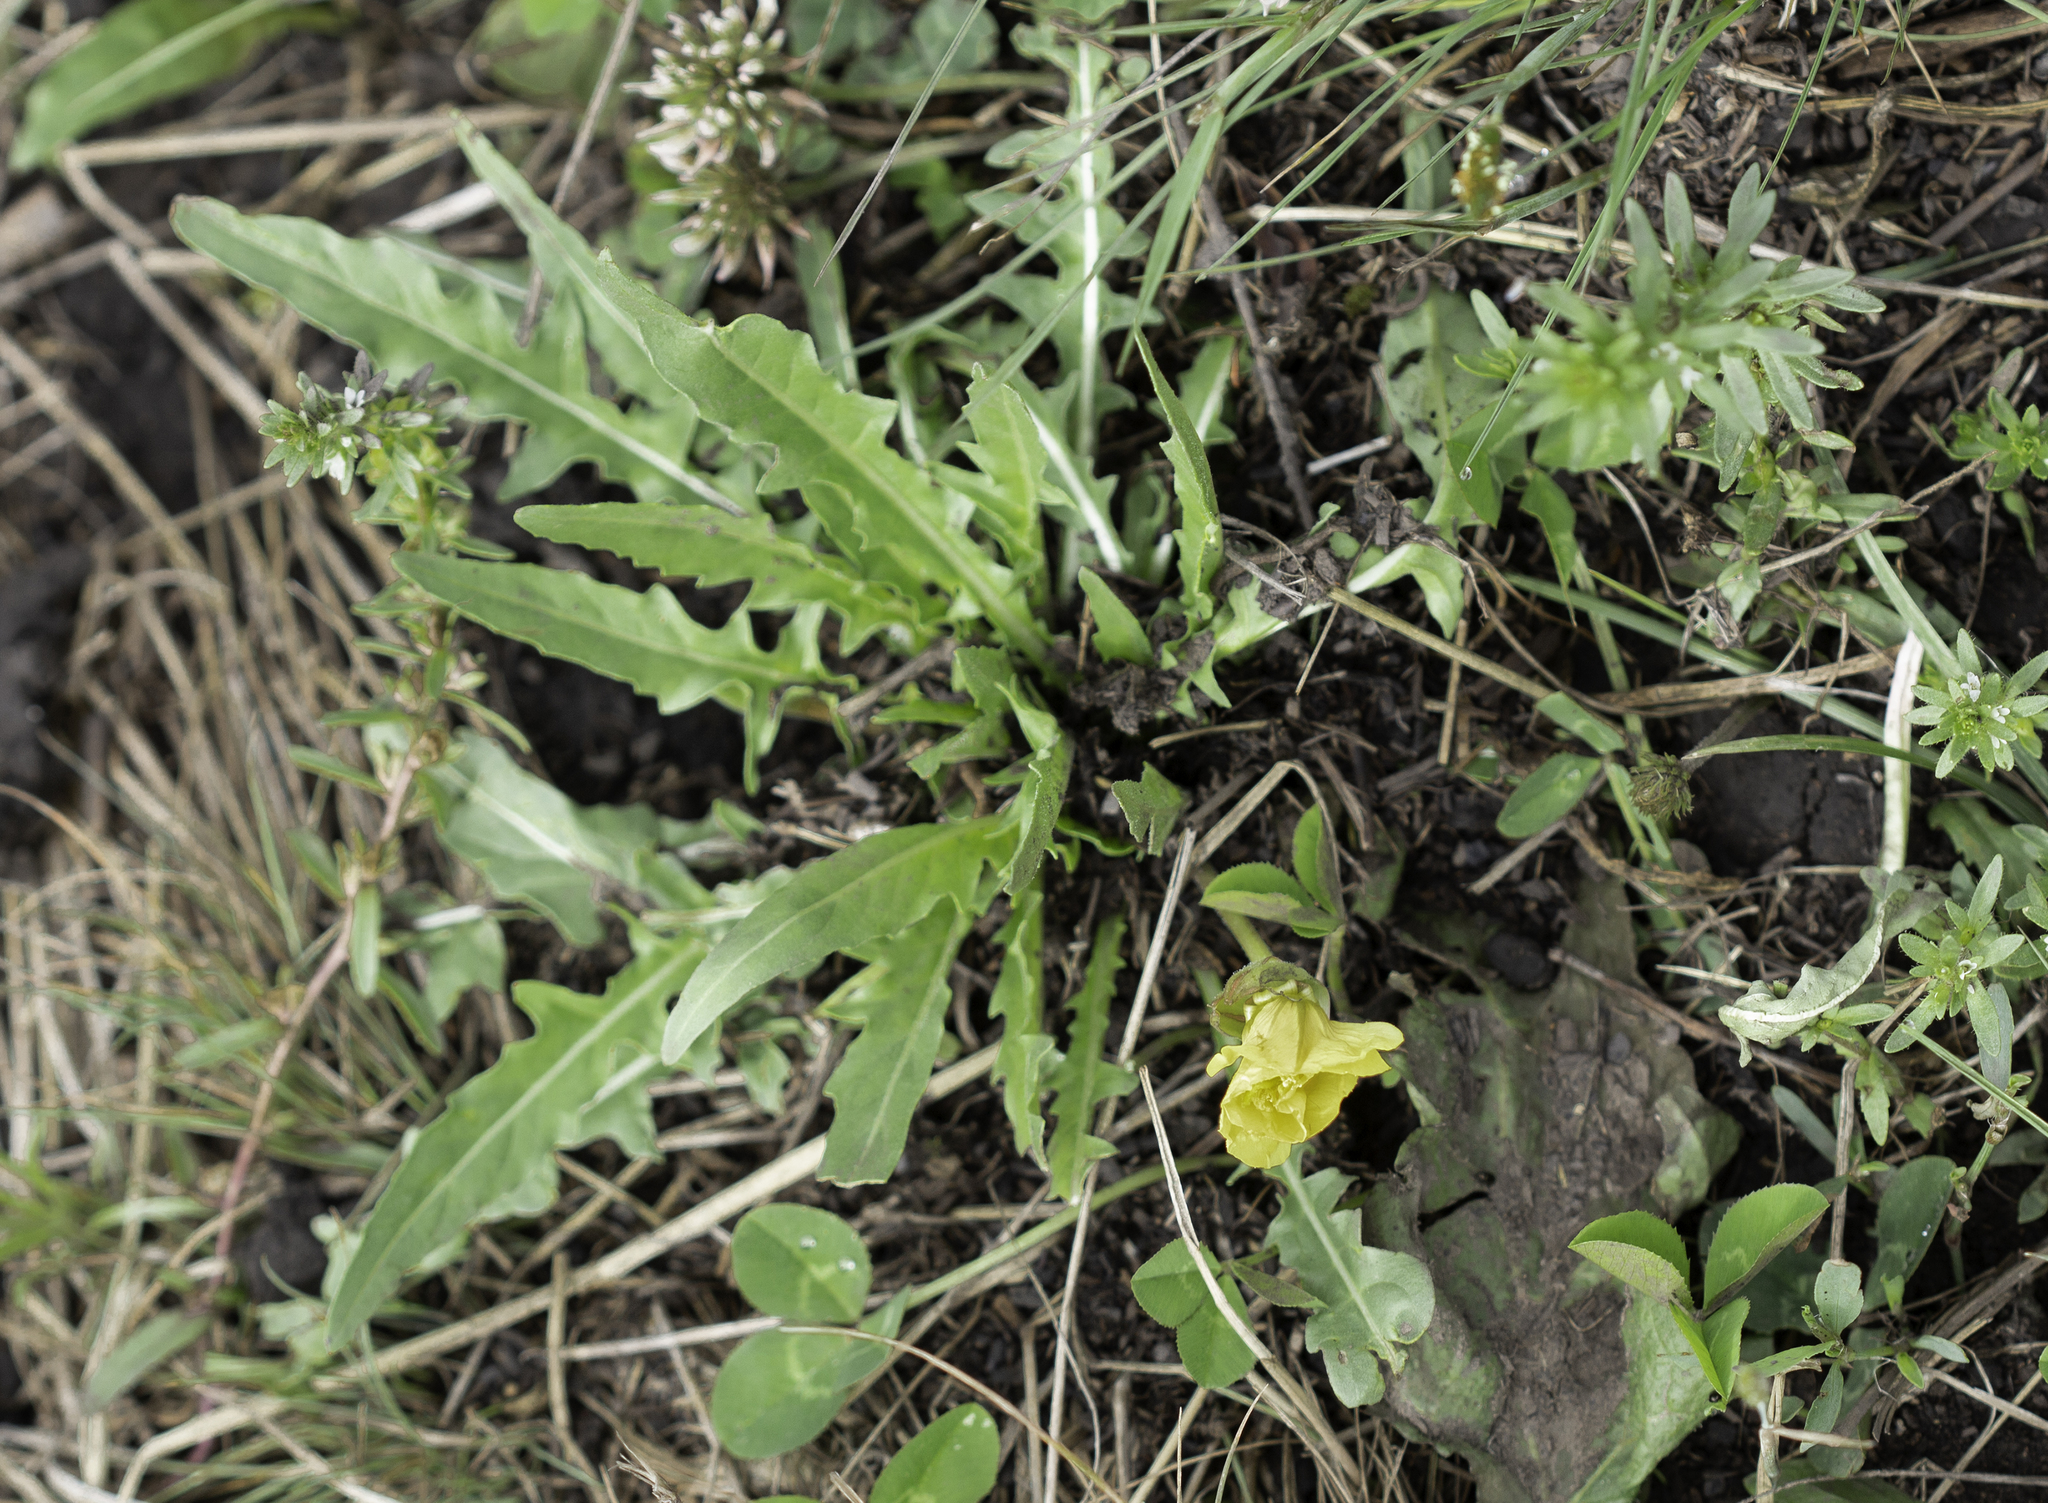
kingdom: Plantae
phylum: Tracheophyta
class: Magnoliopsida
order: Myrtales
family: Onagraceae
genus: Oenothera
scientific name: Oenothera flava
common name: Long-tubed evening-primrose
